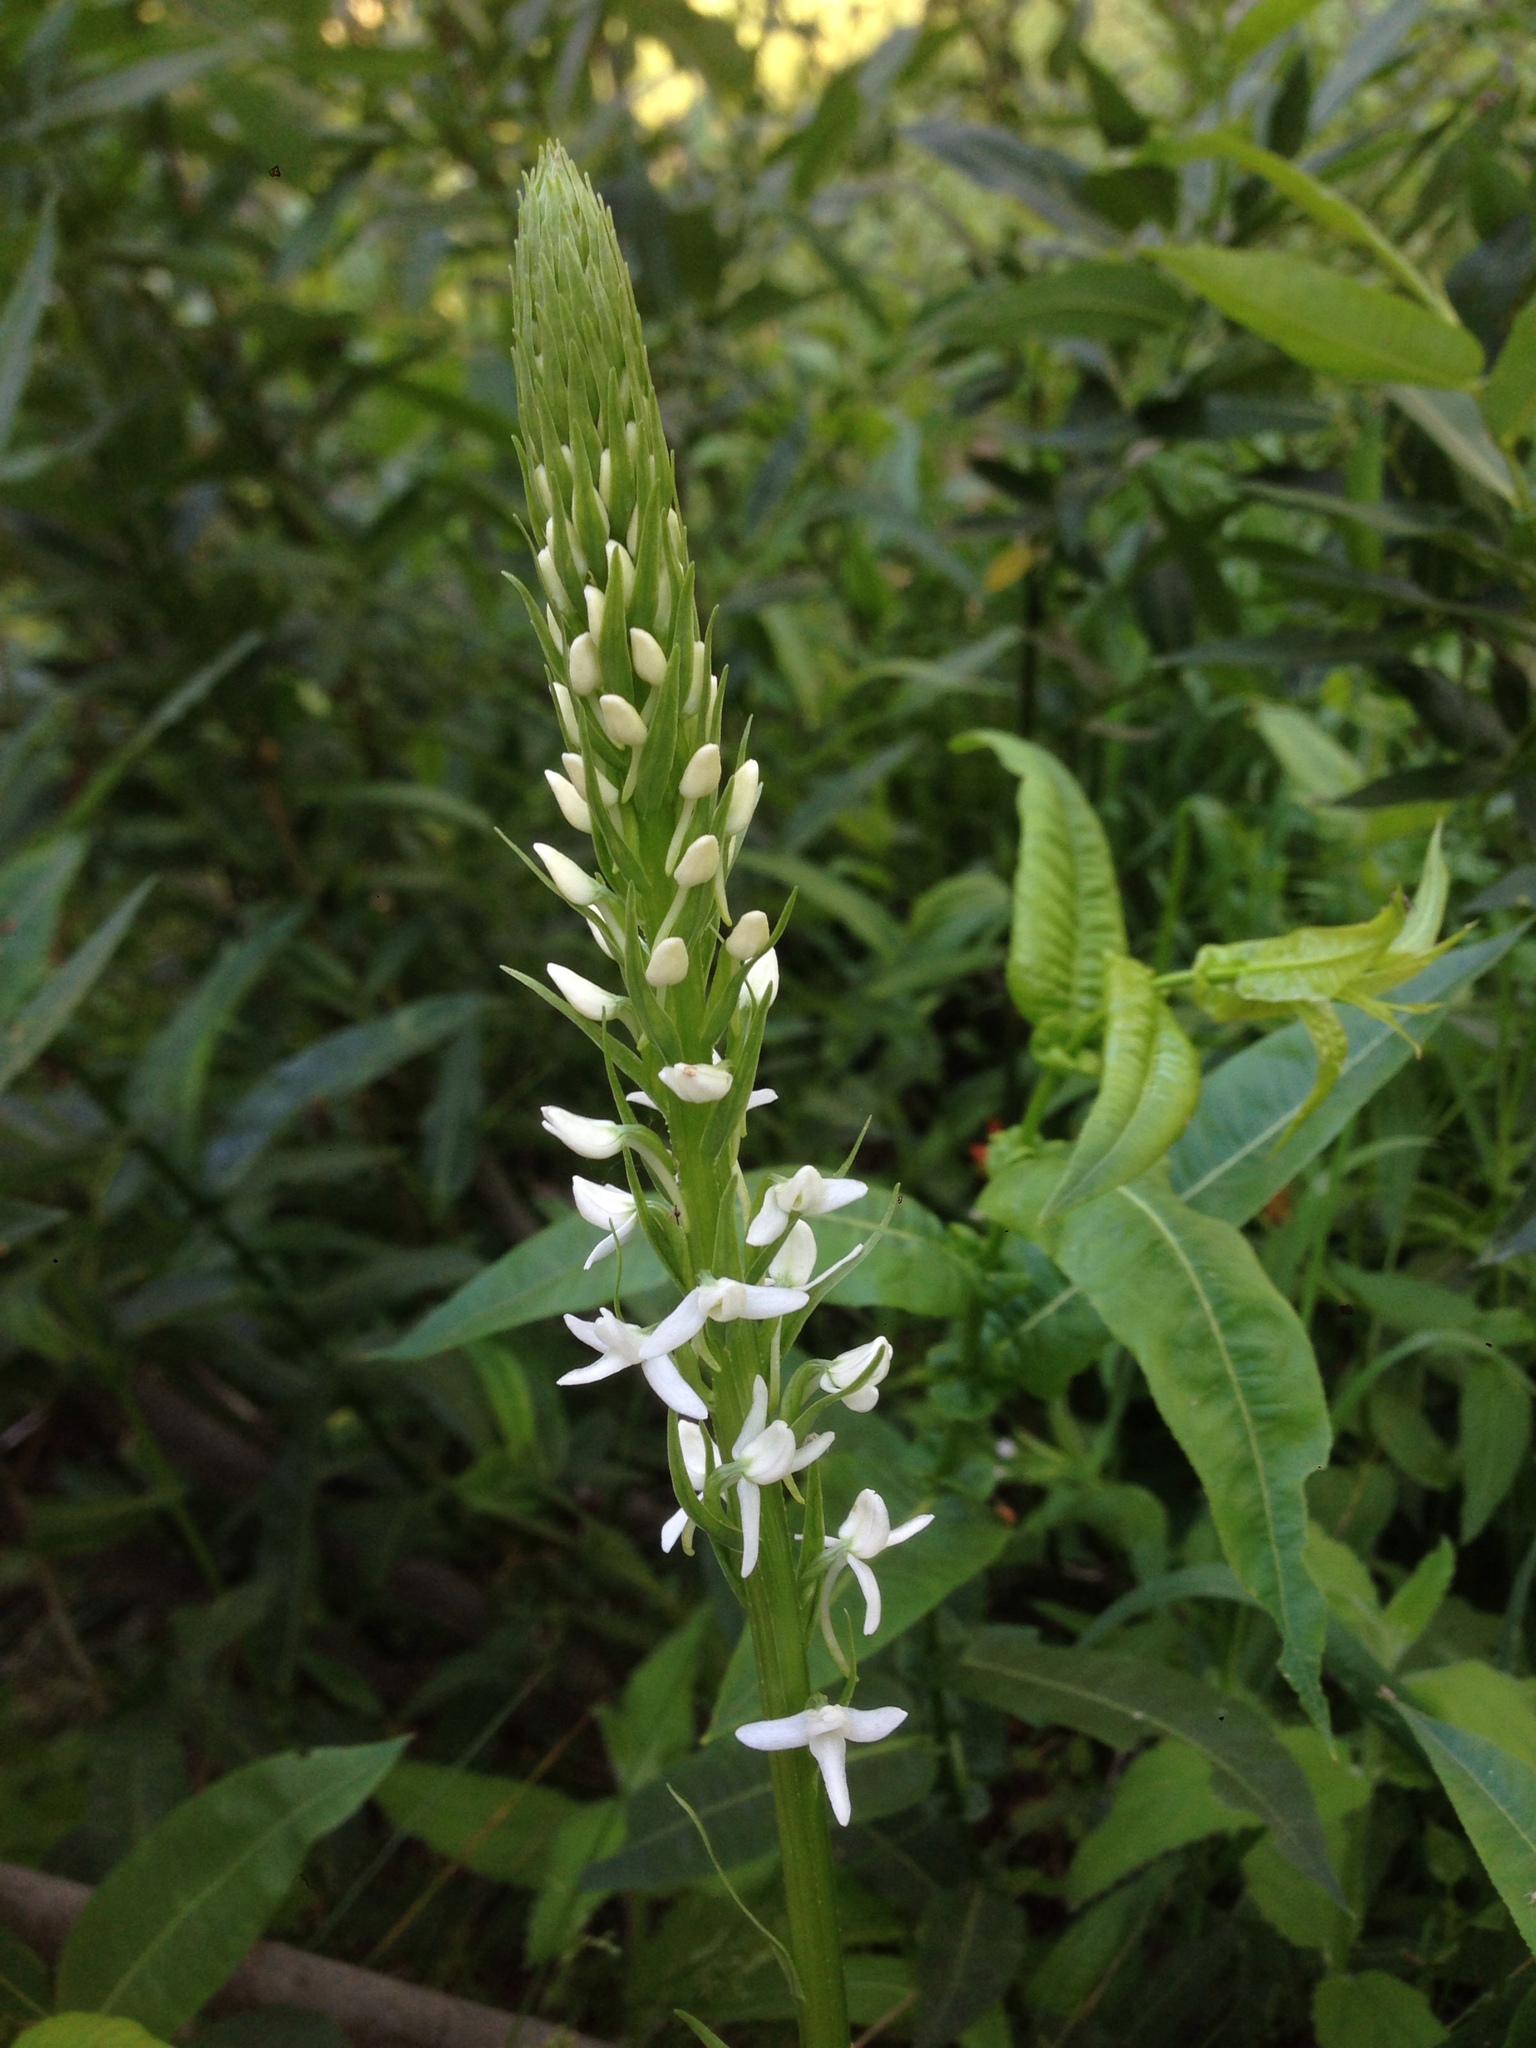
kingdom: Plantae
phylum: Tracheophyta
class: Liliopsida
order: Asparagales
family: Orchidaceae
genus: Platanthera
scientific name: Platanthera dilatata
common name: Bog candles
